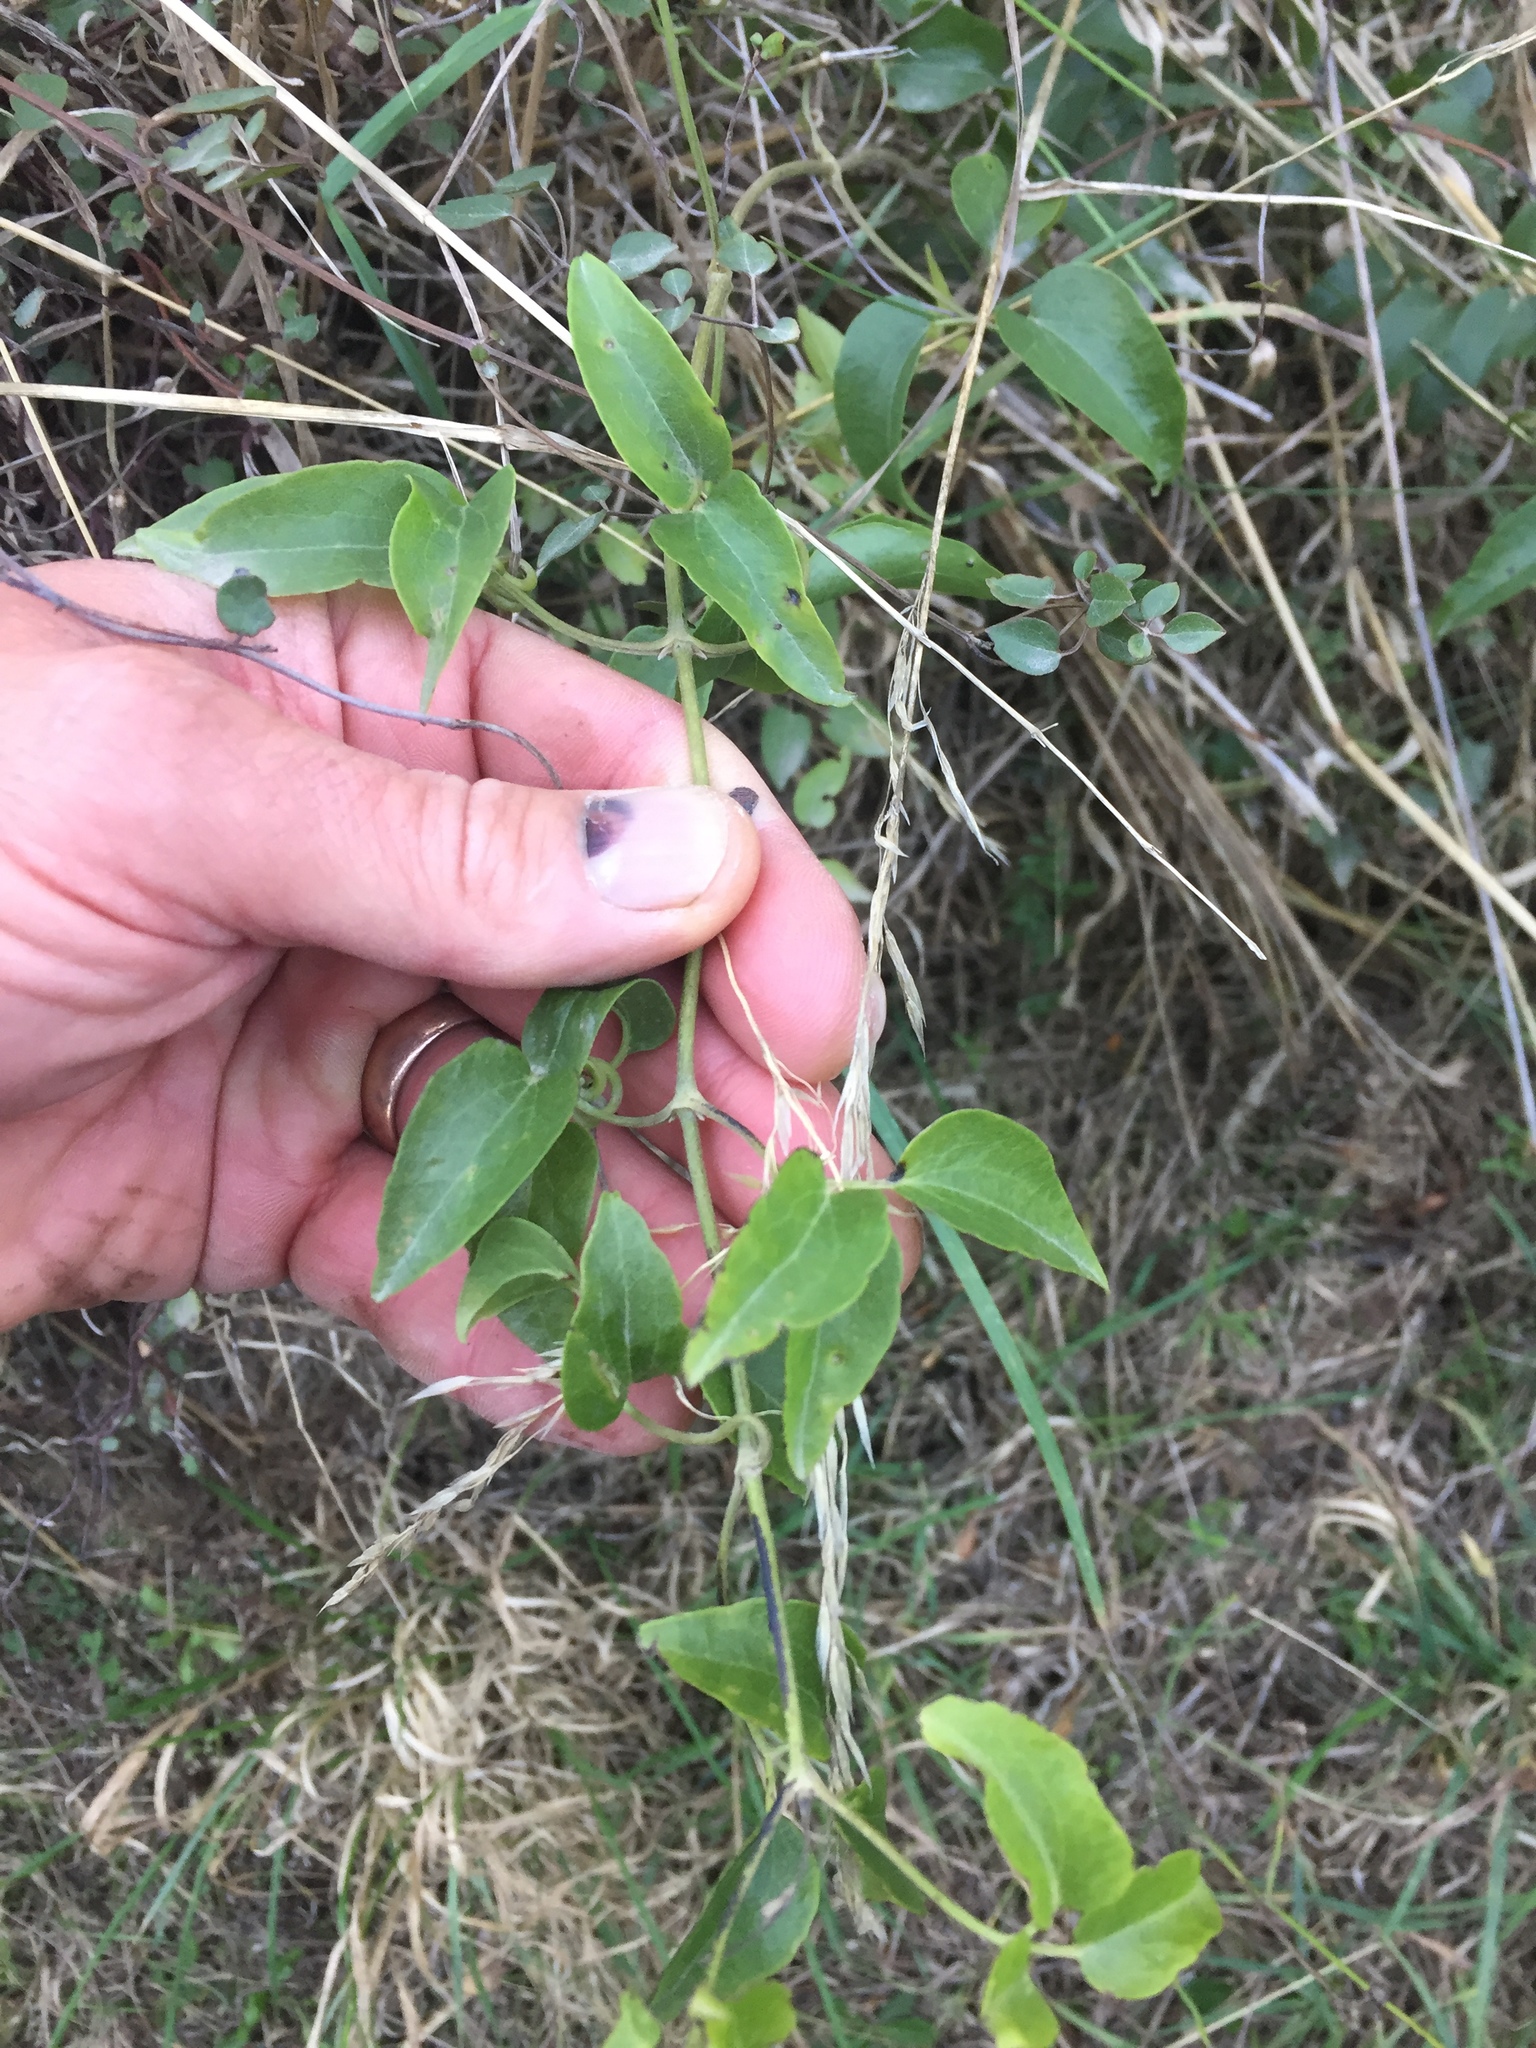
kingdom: Plantae
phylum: Tracheophyta
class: Magnoliopsida
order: Ranunculales
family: Ranunculaceae
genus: Clematis
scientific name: Clematis foetida
